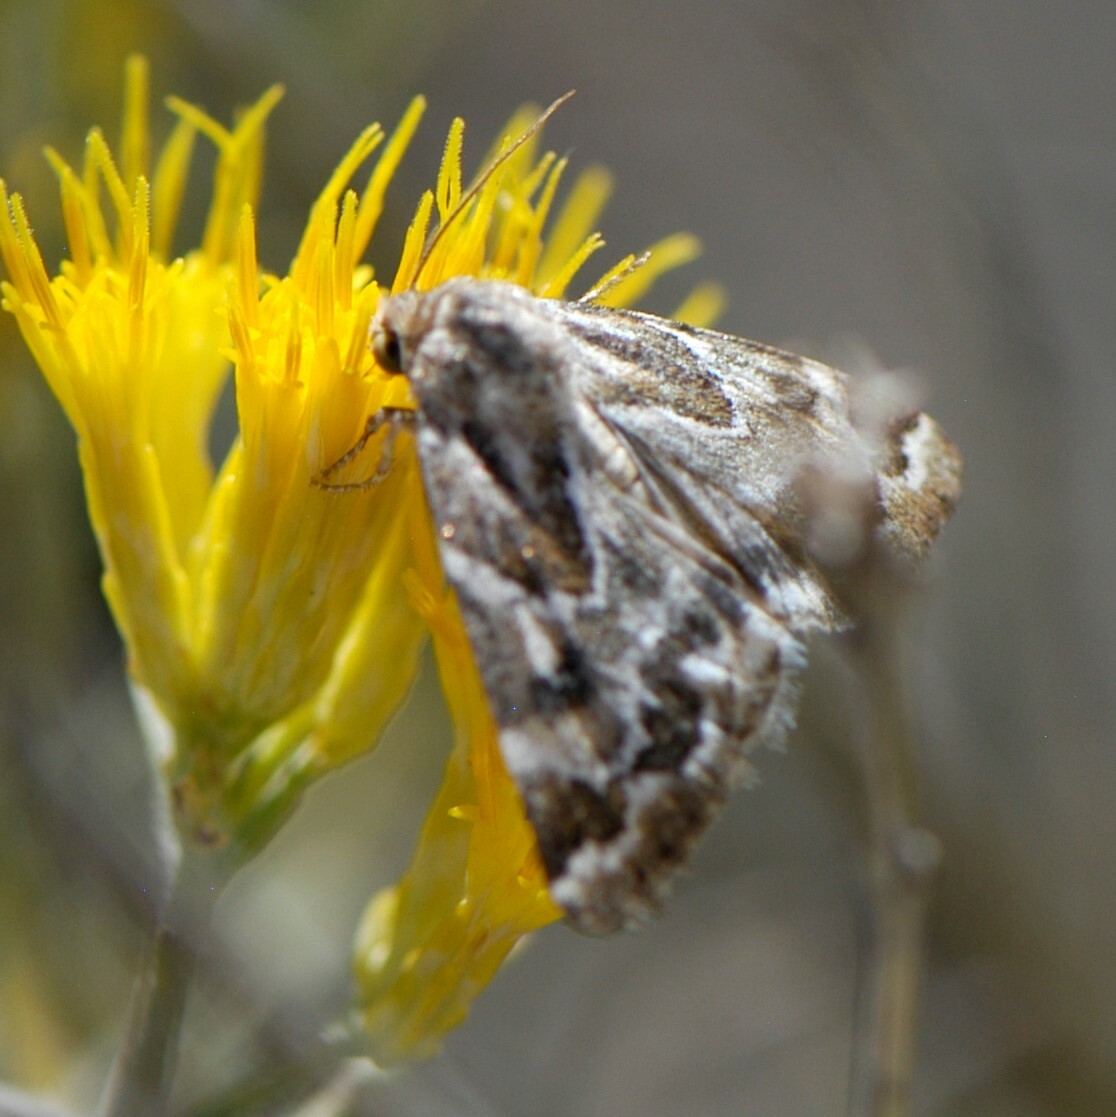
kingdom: Animalia
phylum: Arthropoda
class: Insecta
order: Lepidoptera
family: Noctuidae
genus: Schinia
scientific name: Schinia acutilinea
